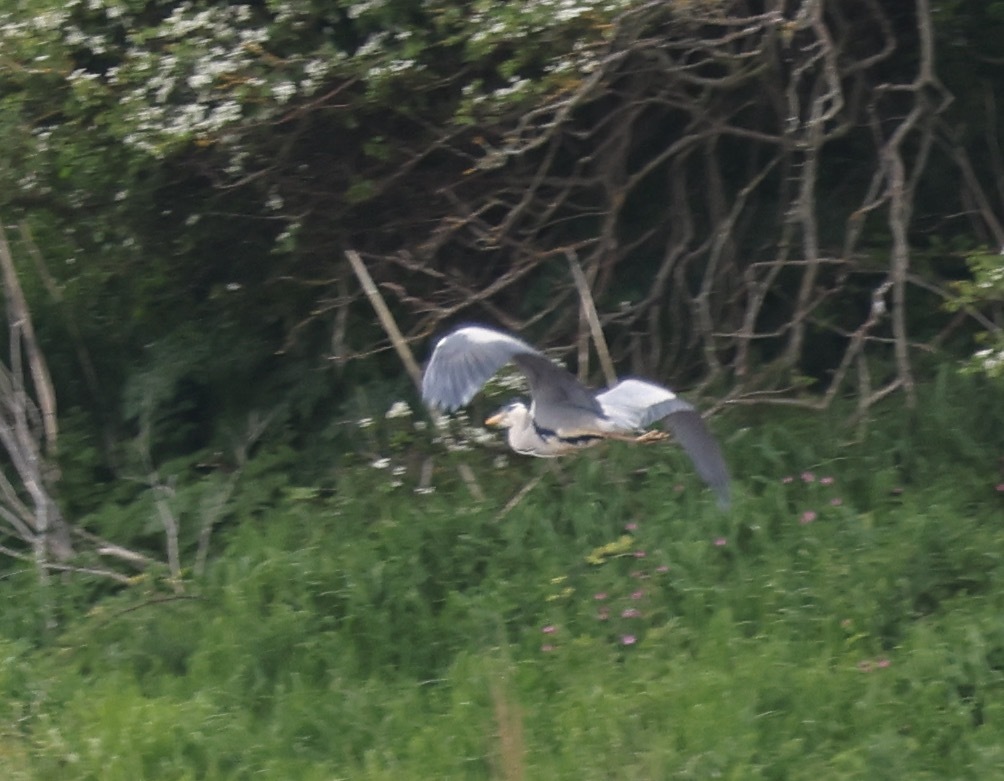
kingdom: Animalia
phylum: Chordata
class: Aves
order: Pelecaniformes
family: Ardeidae
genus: Ardea
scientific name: Ardea cinerea
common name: Grey heron
